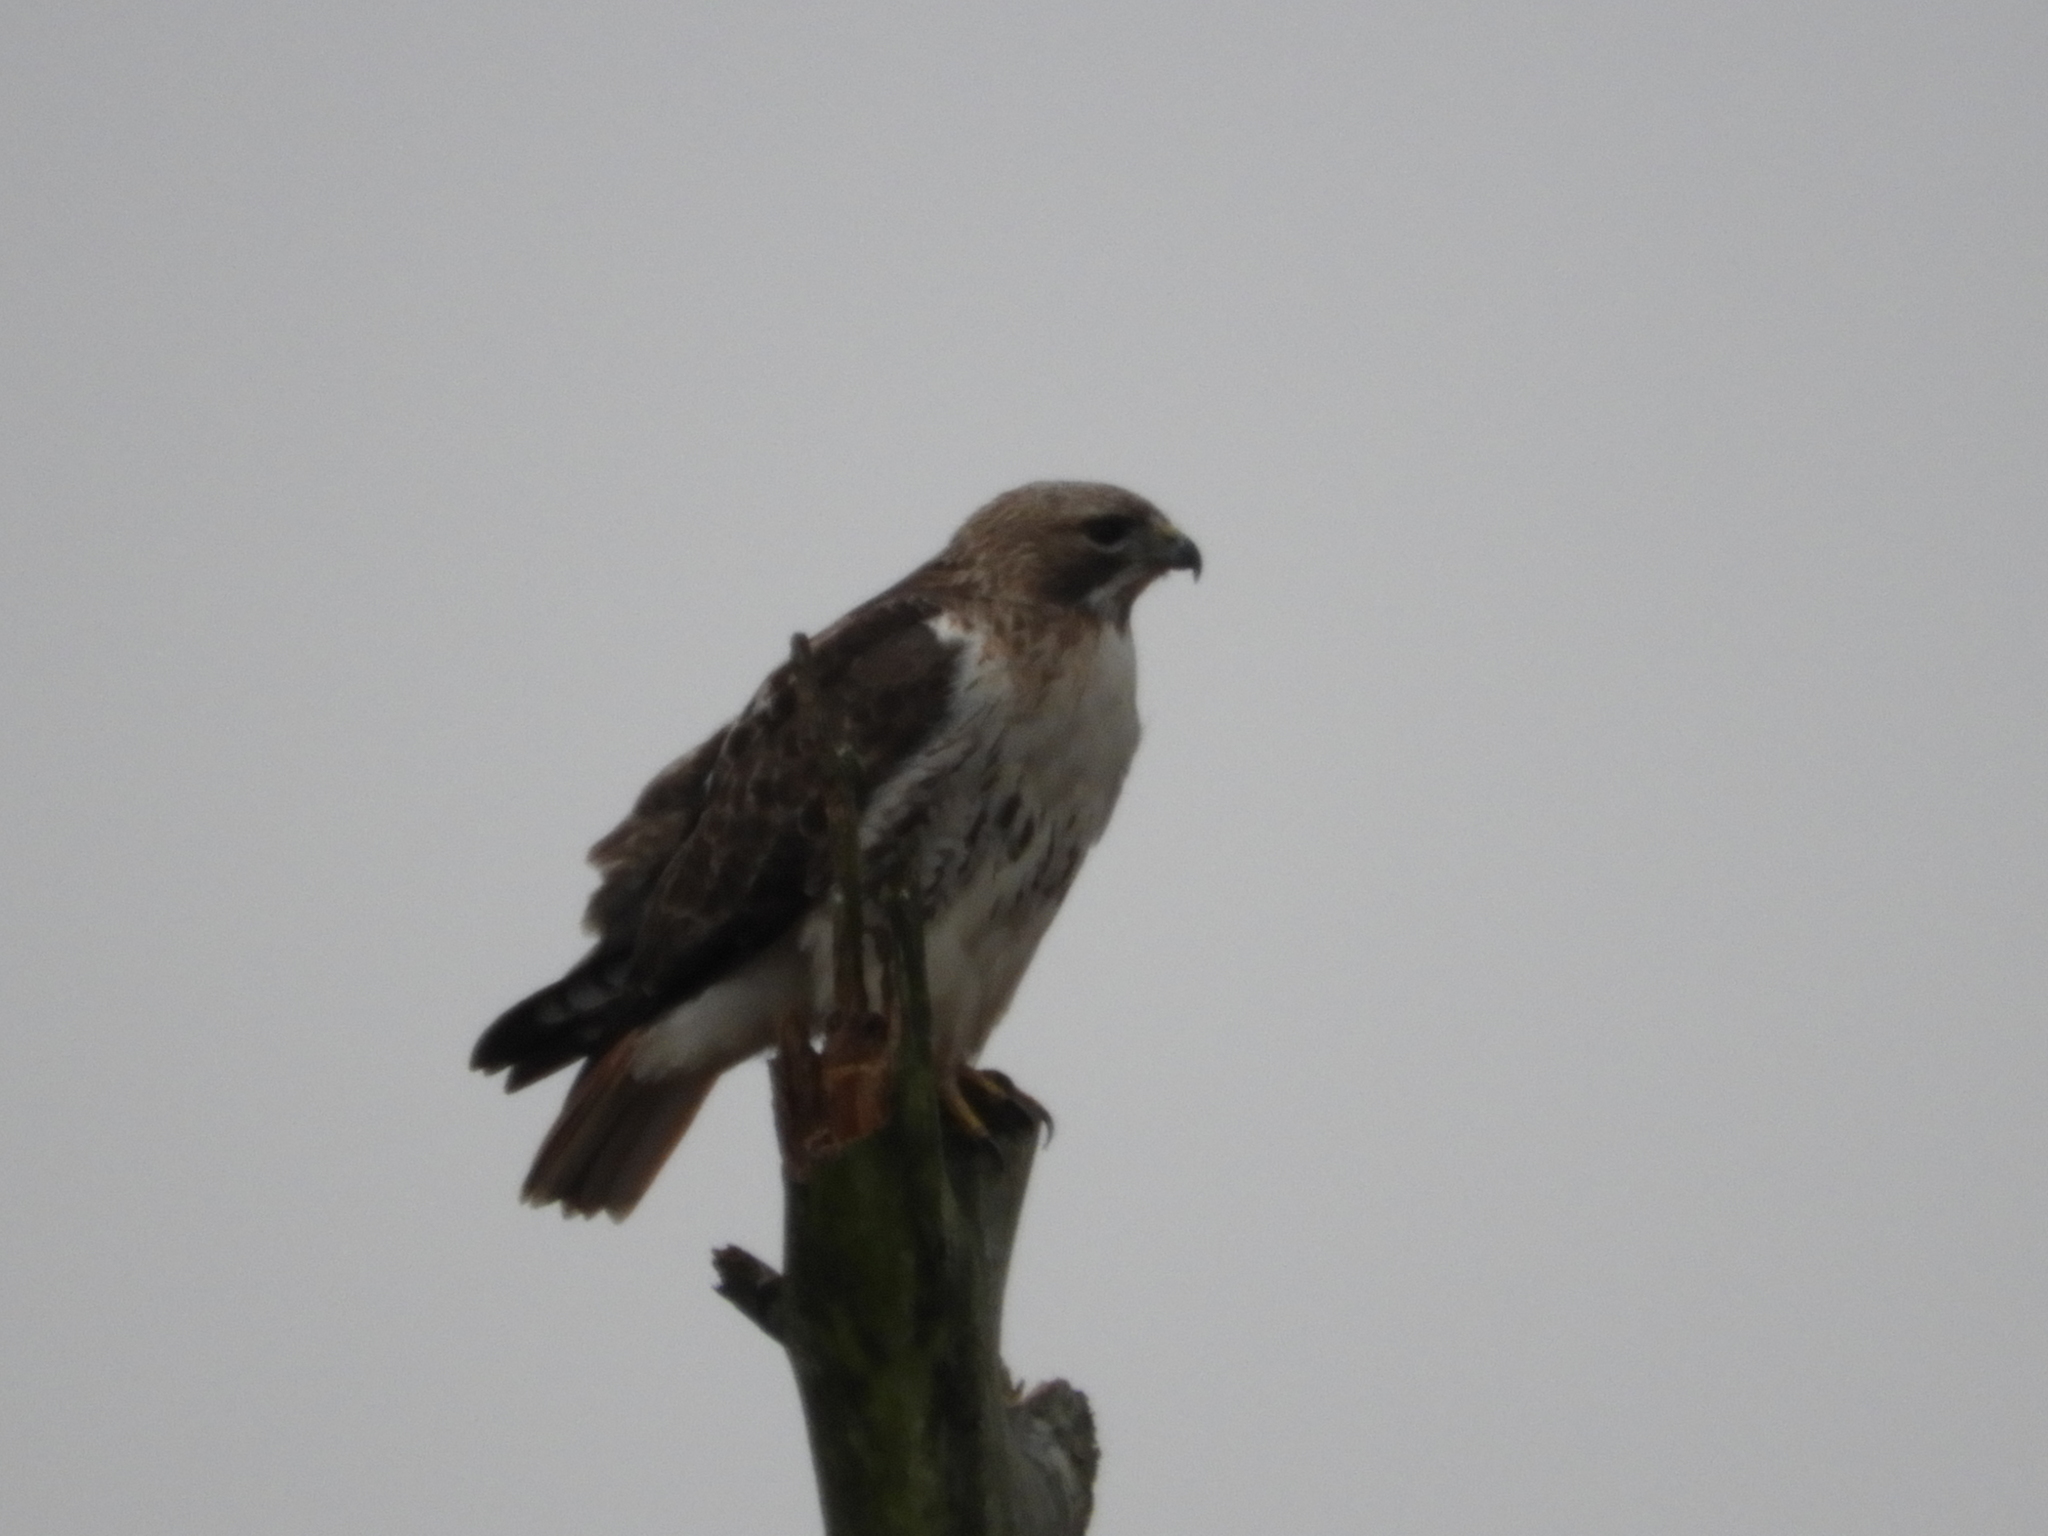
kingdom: Animalia
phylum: Chordata
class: Aves
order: Accipitriformes
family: Accipitridae
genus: Buteo
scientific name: Buteo jamaicensis
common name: Red-tailed hawk
